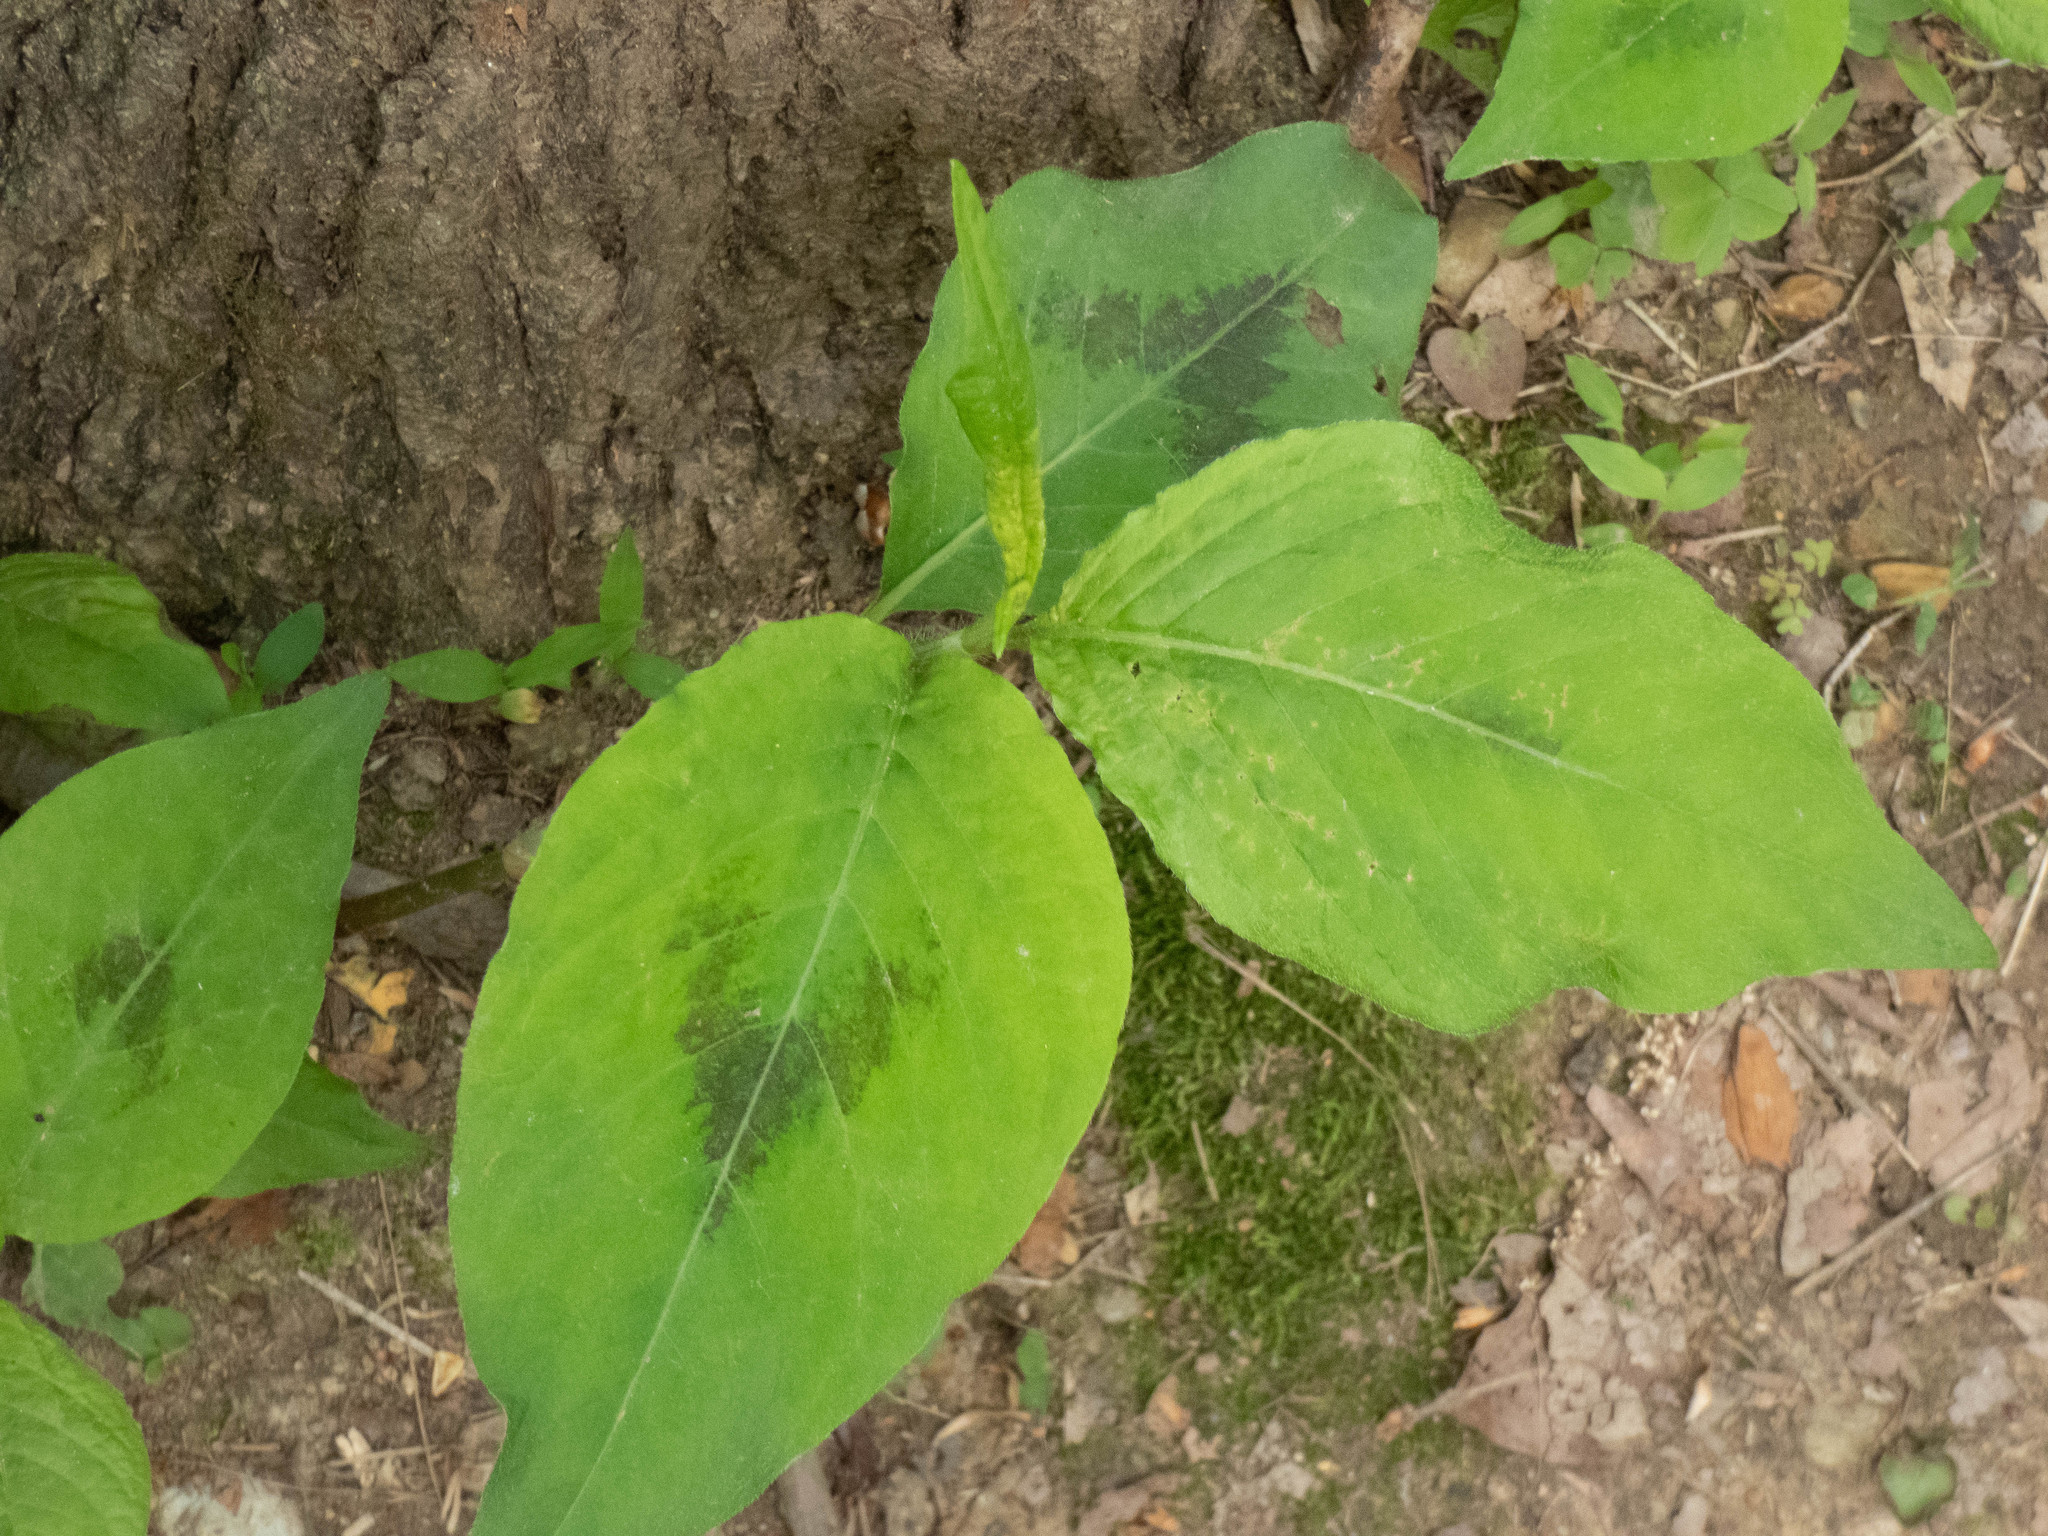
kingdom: Plantae
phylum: Tracheophyta
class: Magnoliopsida
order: Caryophyllales
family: Polygonaceae
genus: Persicaria
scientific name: Persicaria virginiana
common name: Jumpseed
